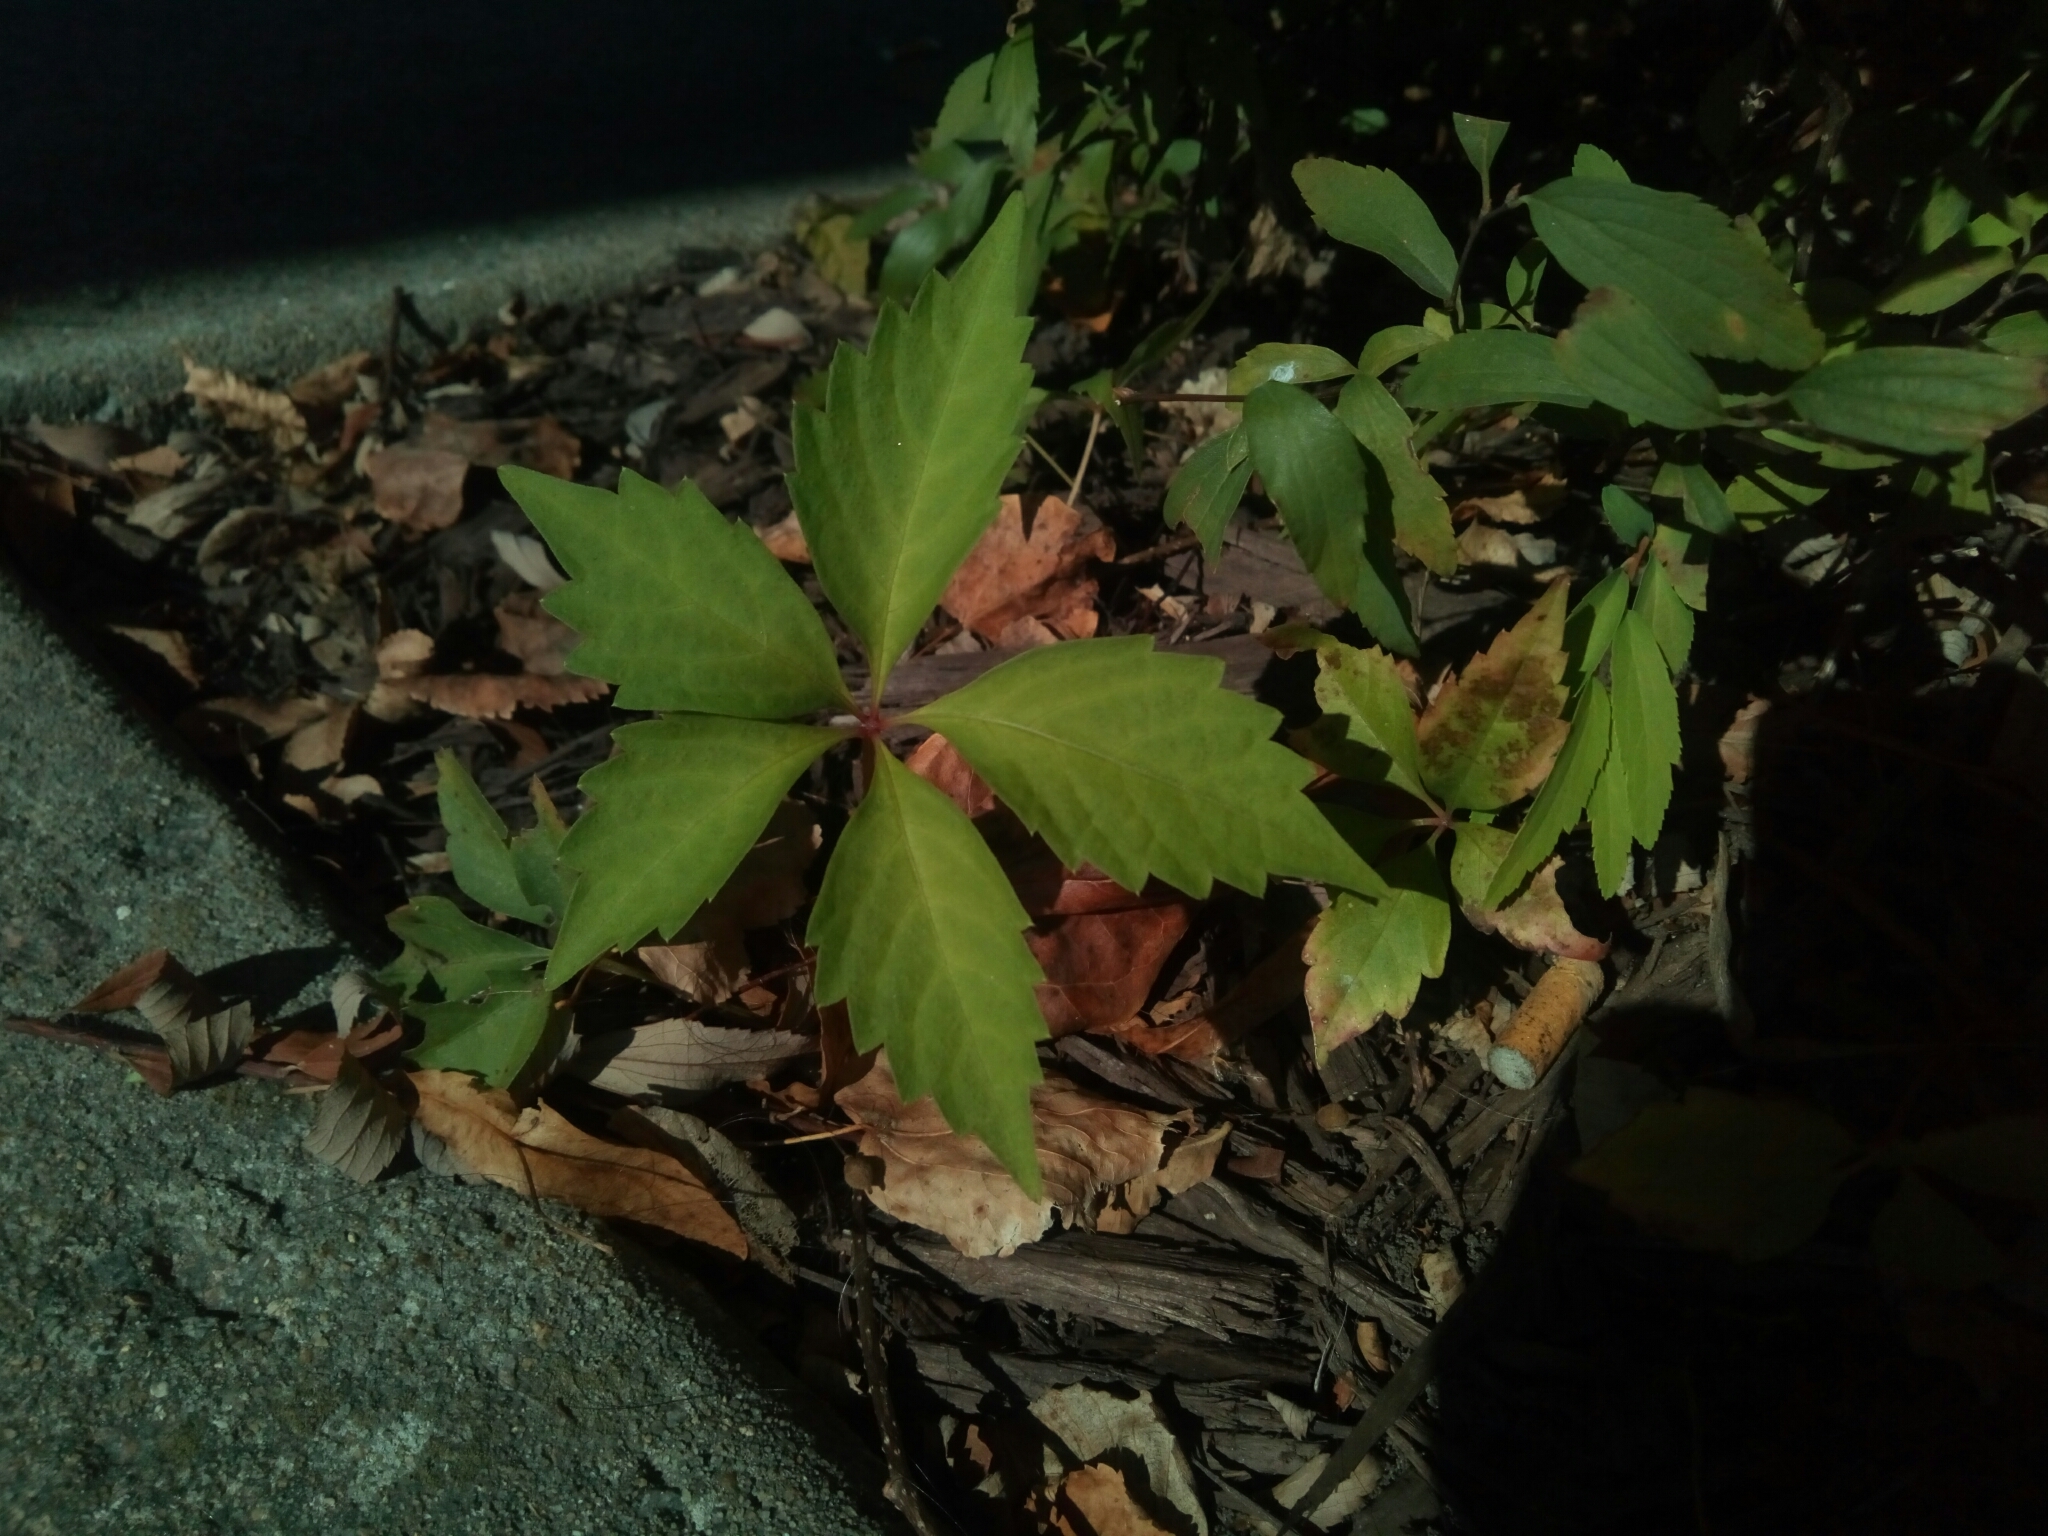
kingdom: Plantae
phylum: Tracheophyta
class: Magnoliopsida
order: Vitales
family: Vitaceae
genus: Parthenocissus
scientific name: Parthenocissus quinquefolia
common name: Virginia-creeper
